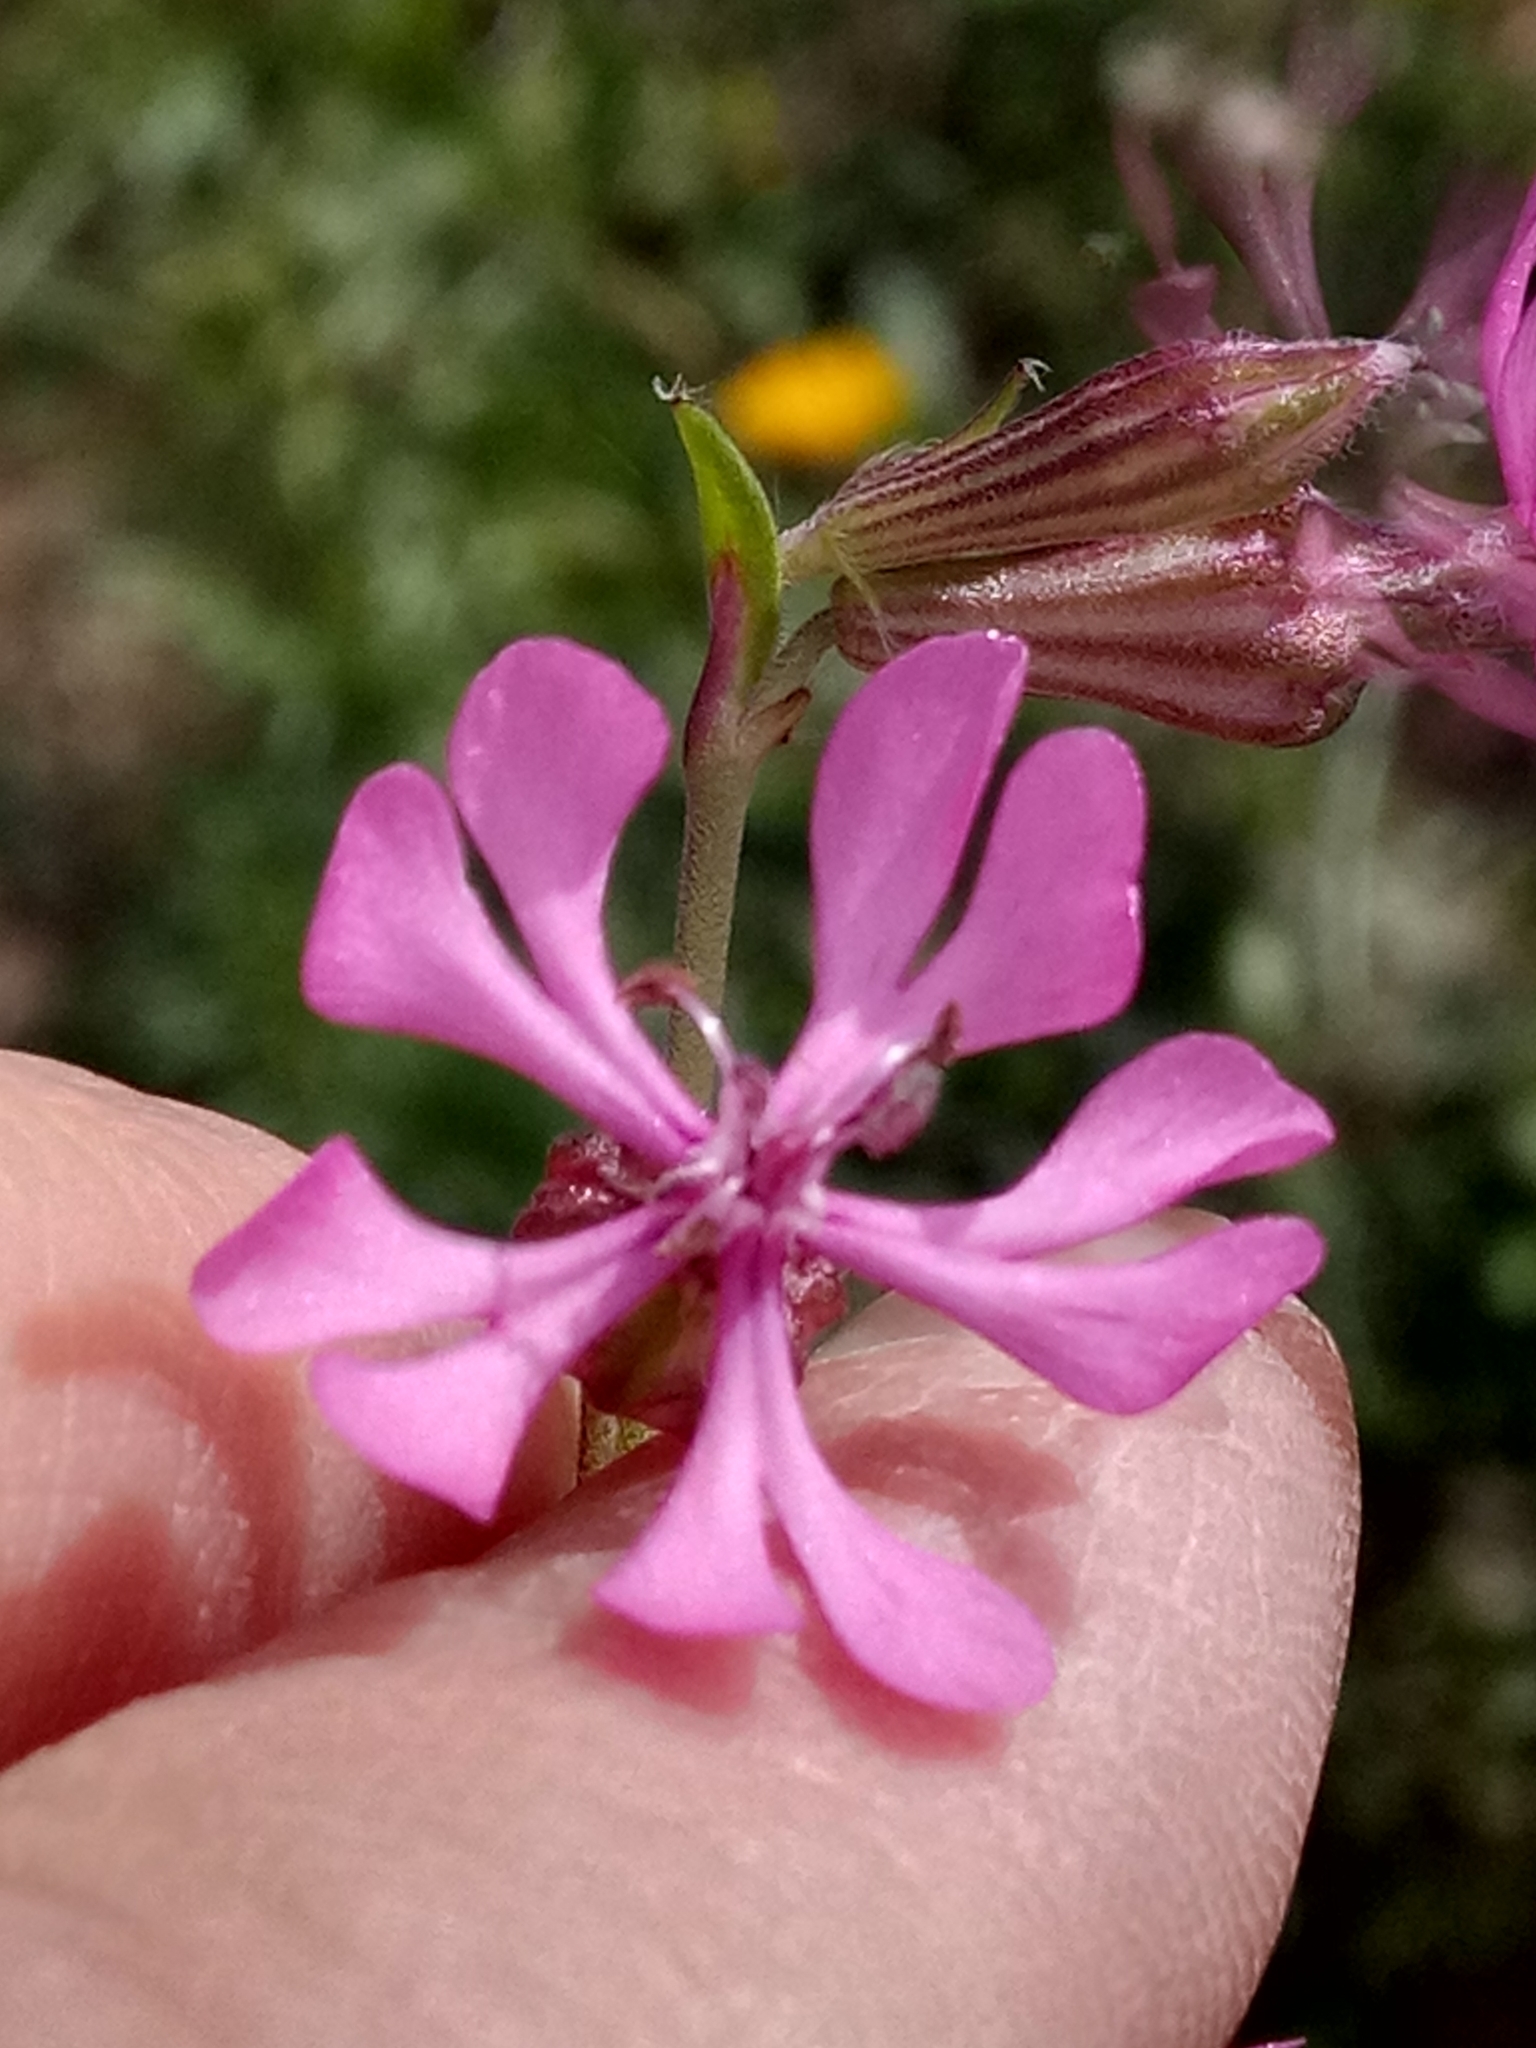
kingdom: Plantae
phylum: Tracheophyta
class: Magnoliopsida
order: Caryophyllales
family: Caryophyllaceae
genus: Silene
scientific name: Silene colorata
